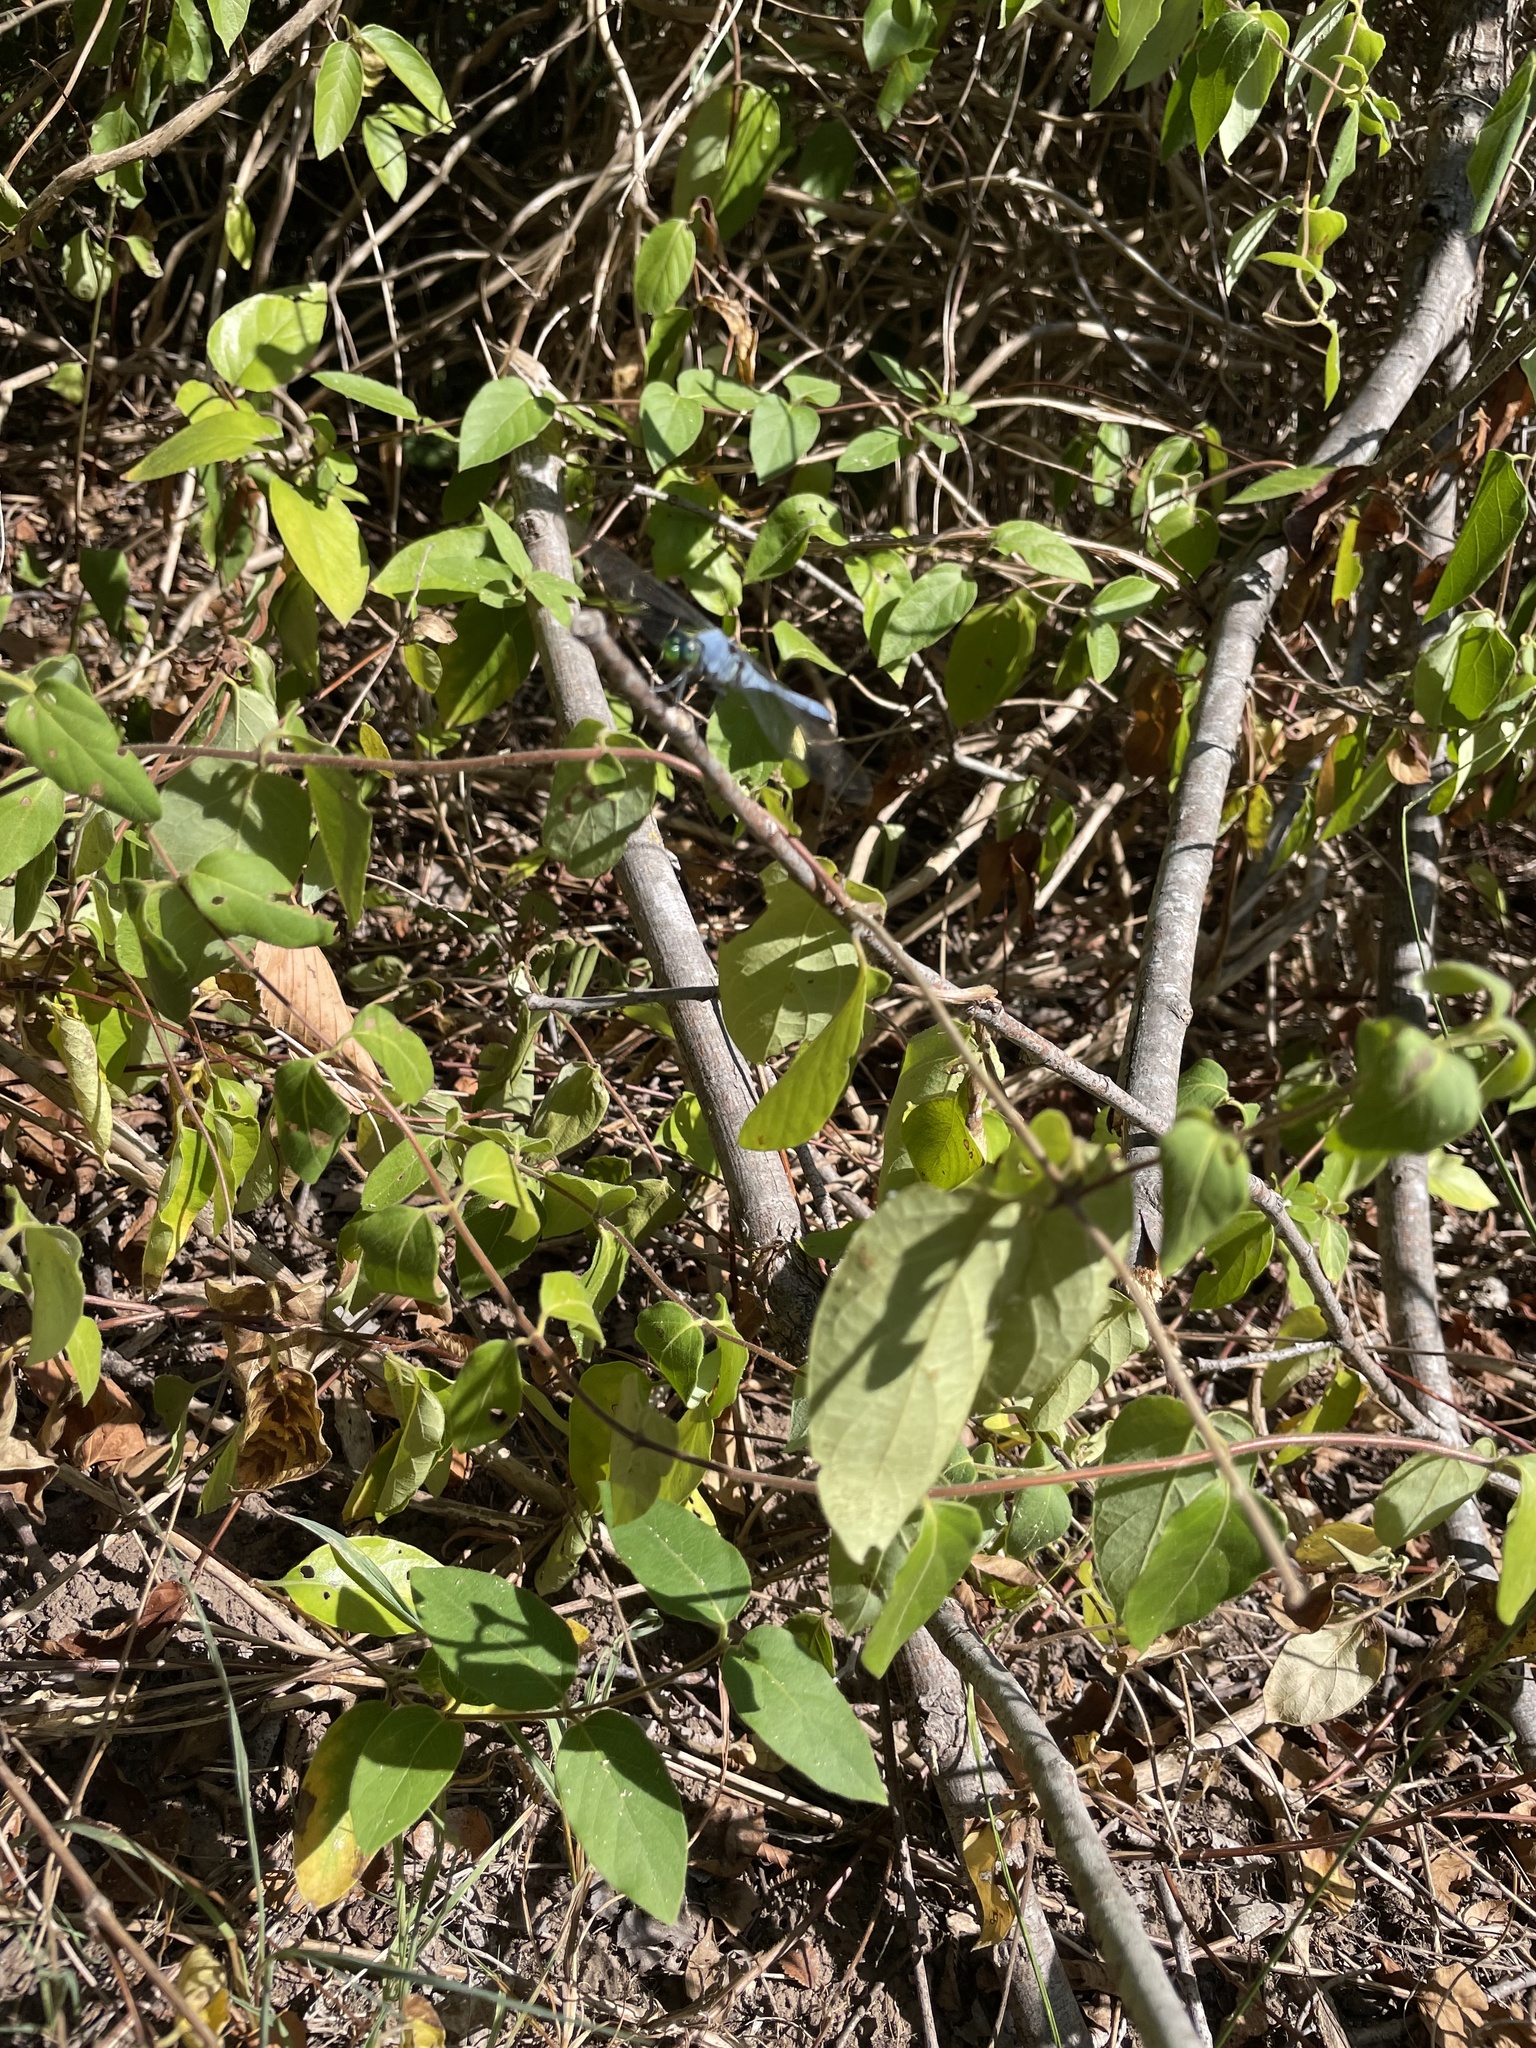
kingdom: Animalia
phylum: Arthropoda
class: Insecta
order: Odonata
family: Libellulidae
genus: Erythemis
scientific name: Erythemis simplicicollis
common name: Eastern pondhawk
